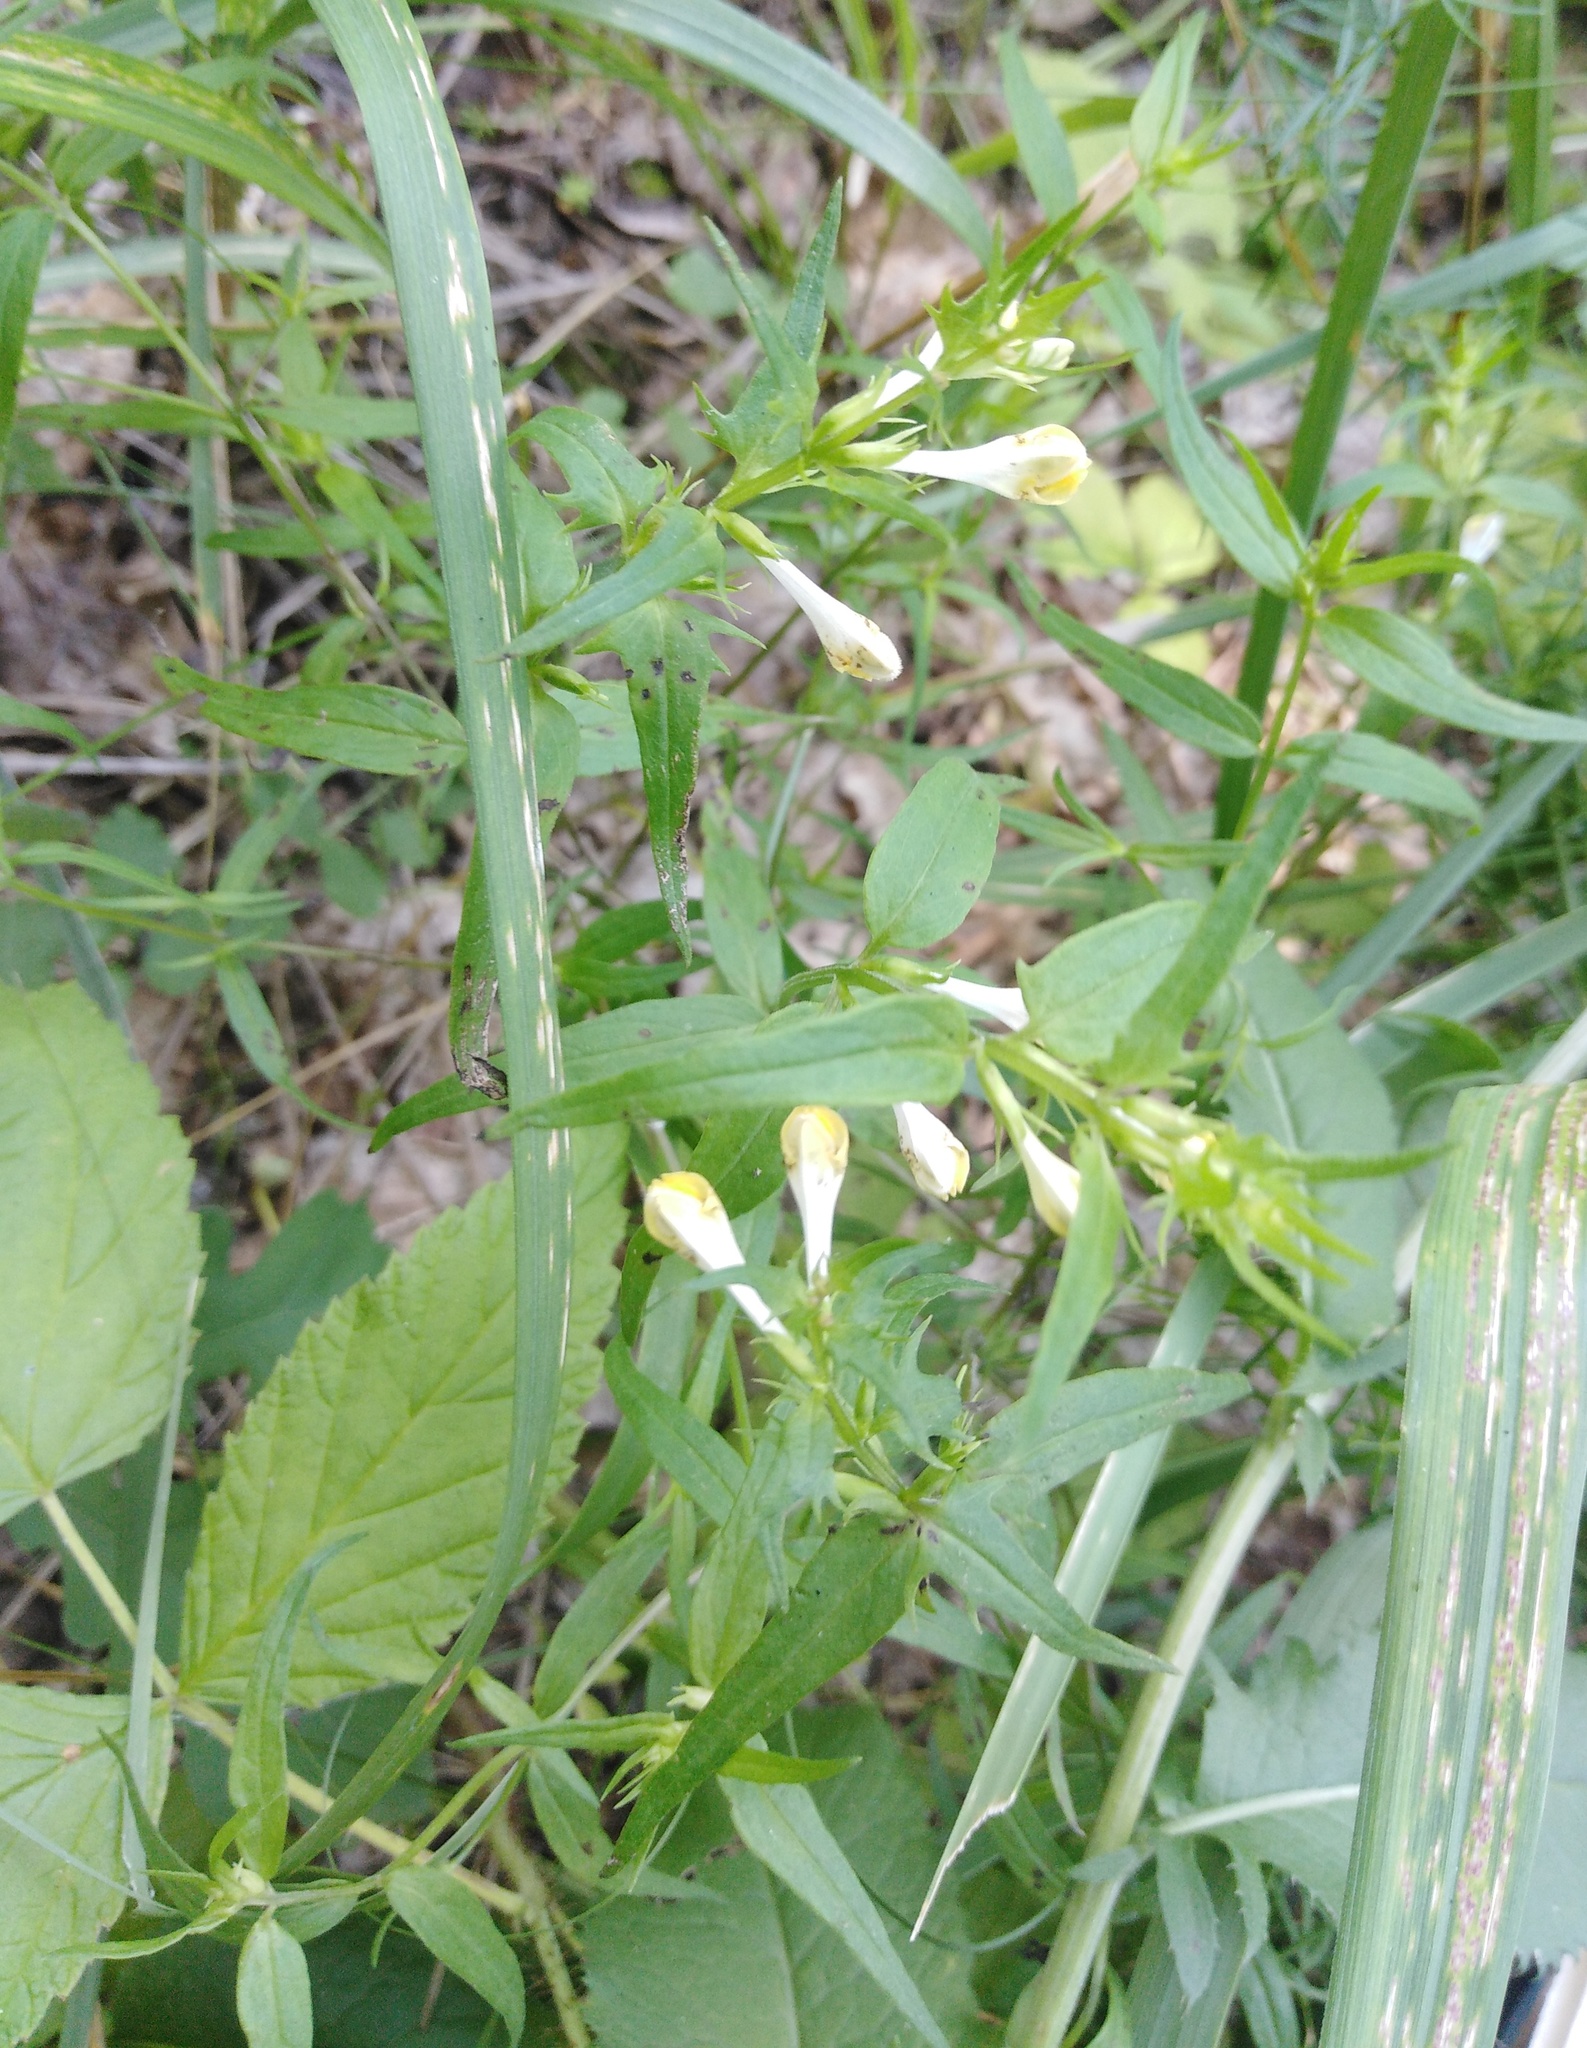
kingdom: Plantae
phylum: Tracheophyta
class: Magnoliopsida
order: Lamiales
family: Orobanchaceae
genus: Melampyrum
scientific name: Melampyrum pratense
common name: Common cow-wheat
